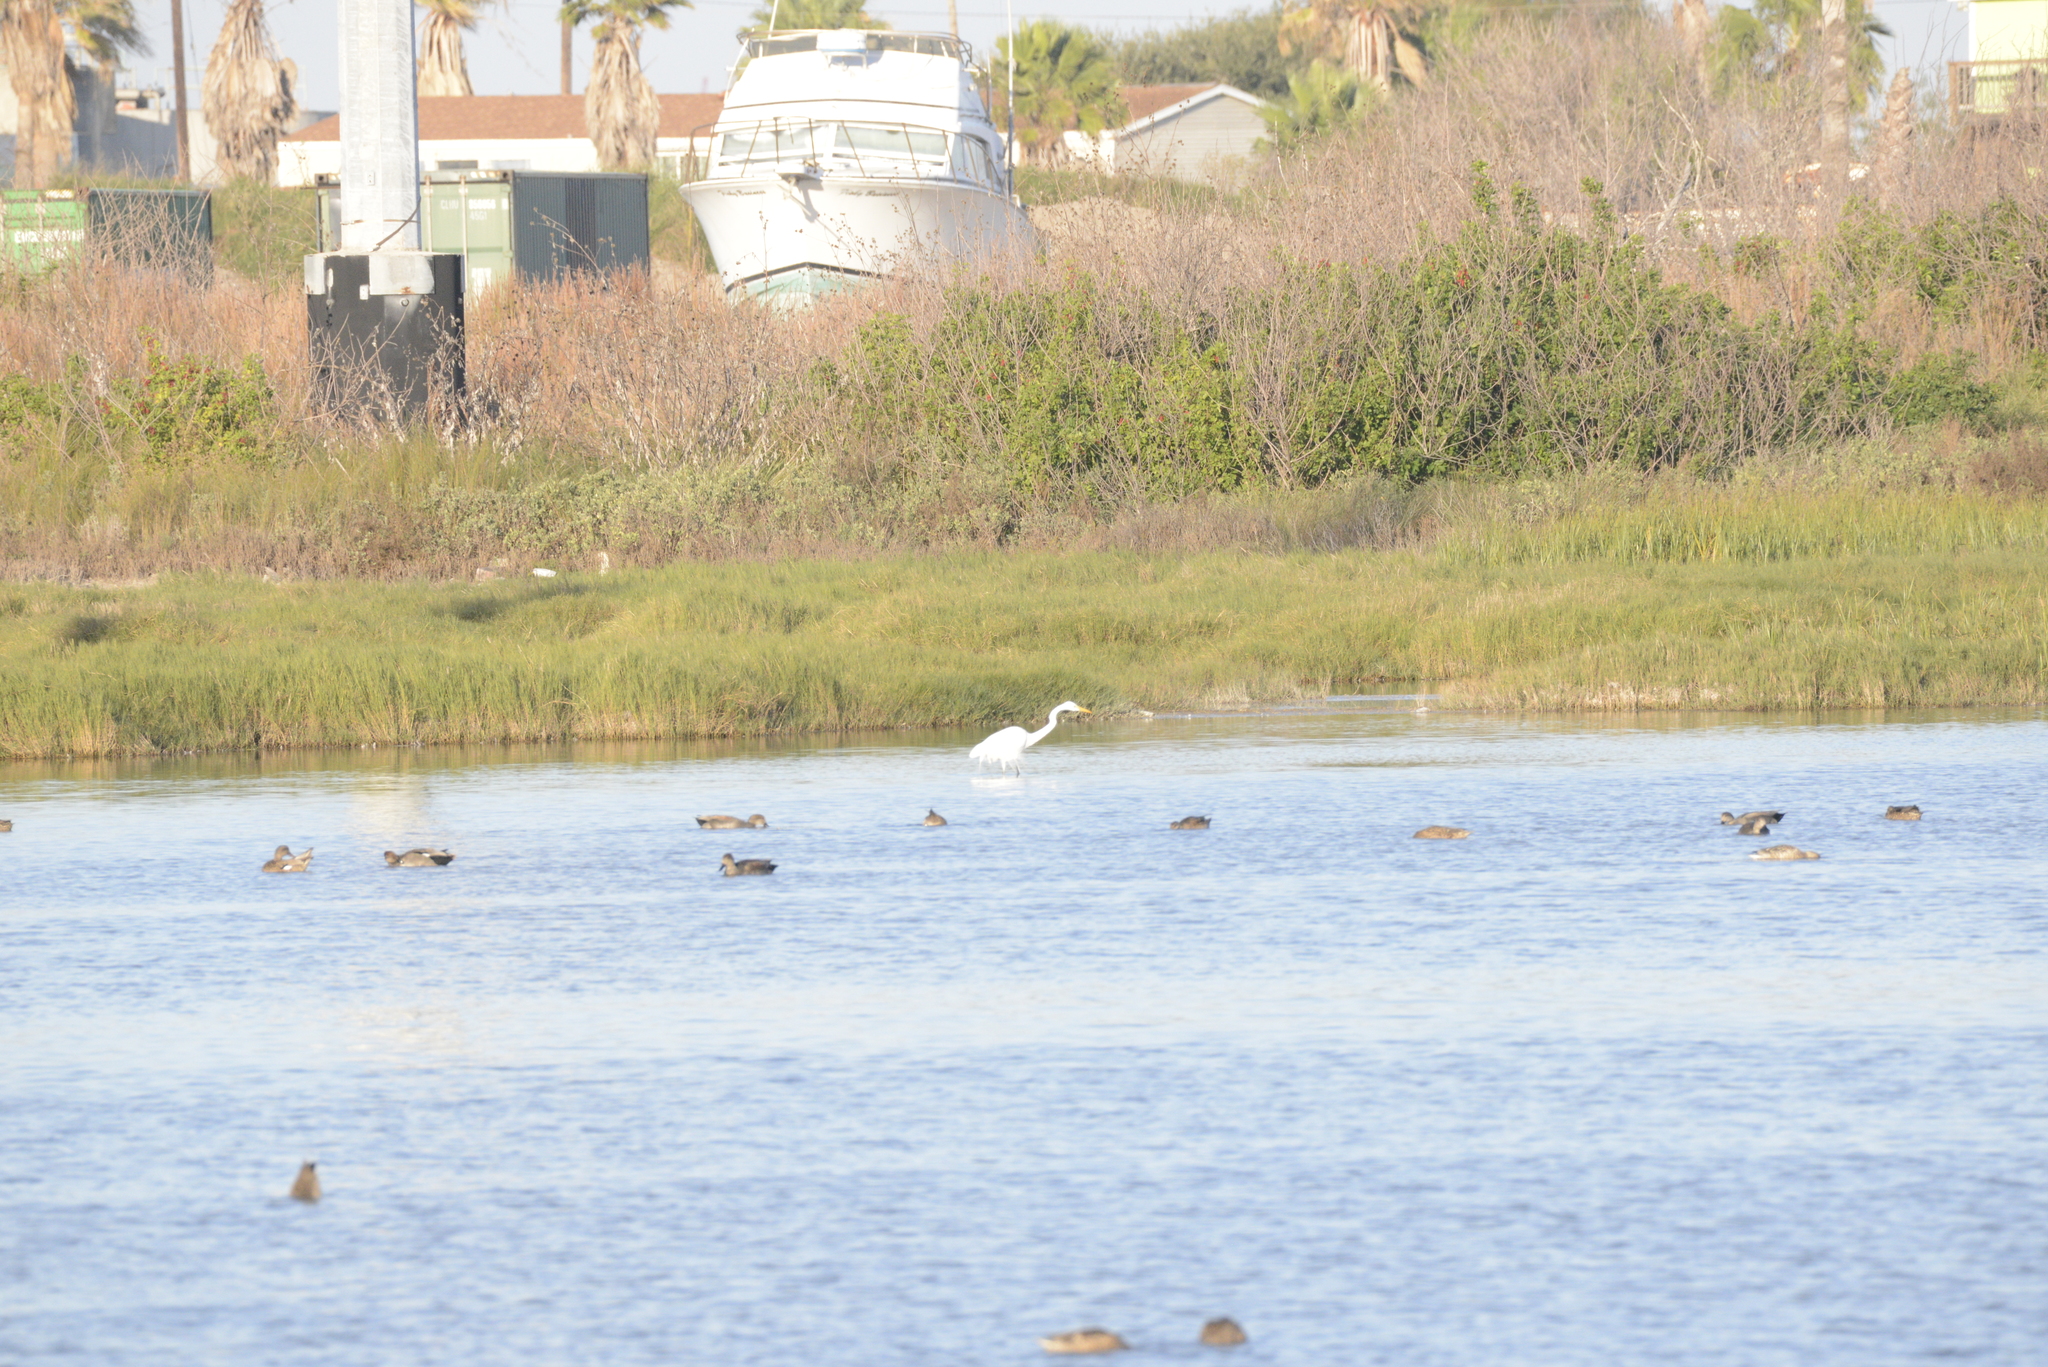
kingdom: Animalia
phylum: Chordata
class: Aves
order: Pelecaniformes
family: Ardeidae
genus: Ardea
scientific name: Ardea alba
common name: Great egret
